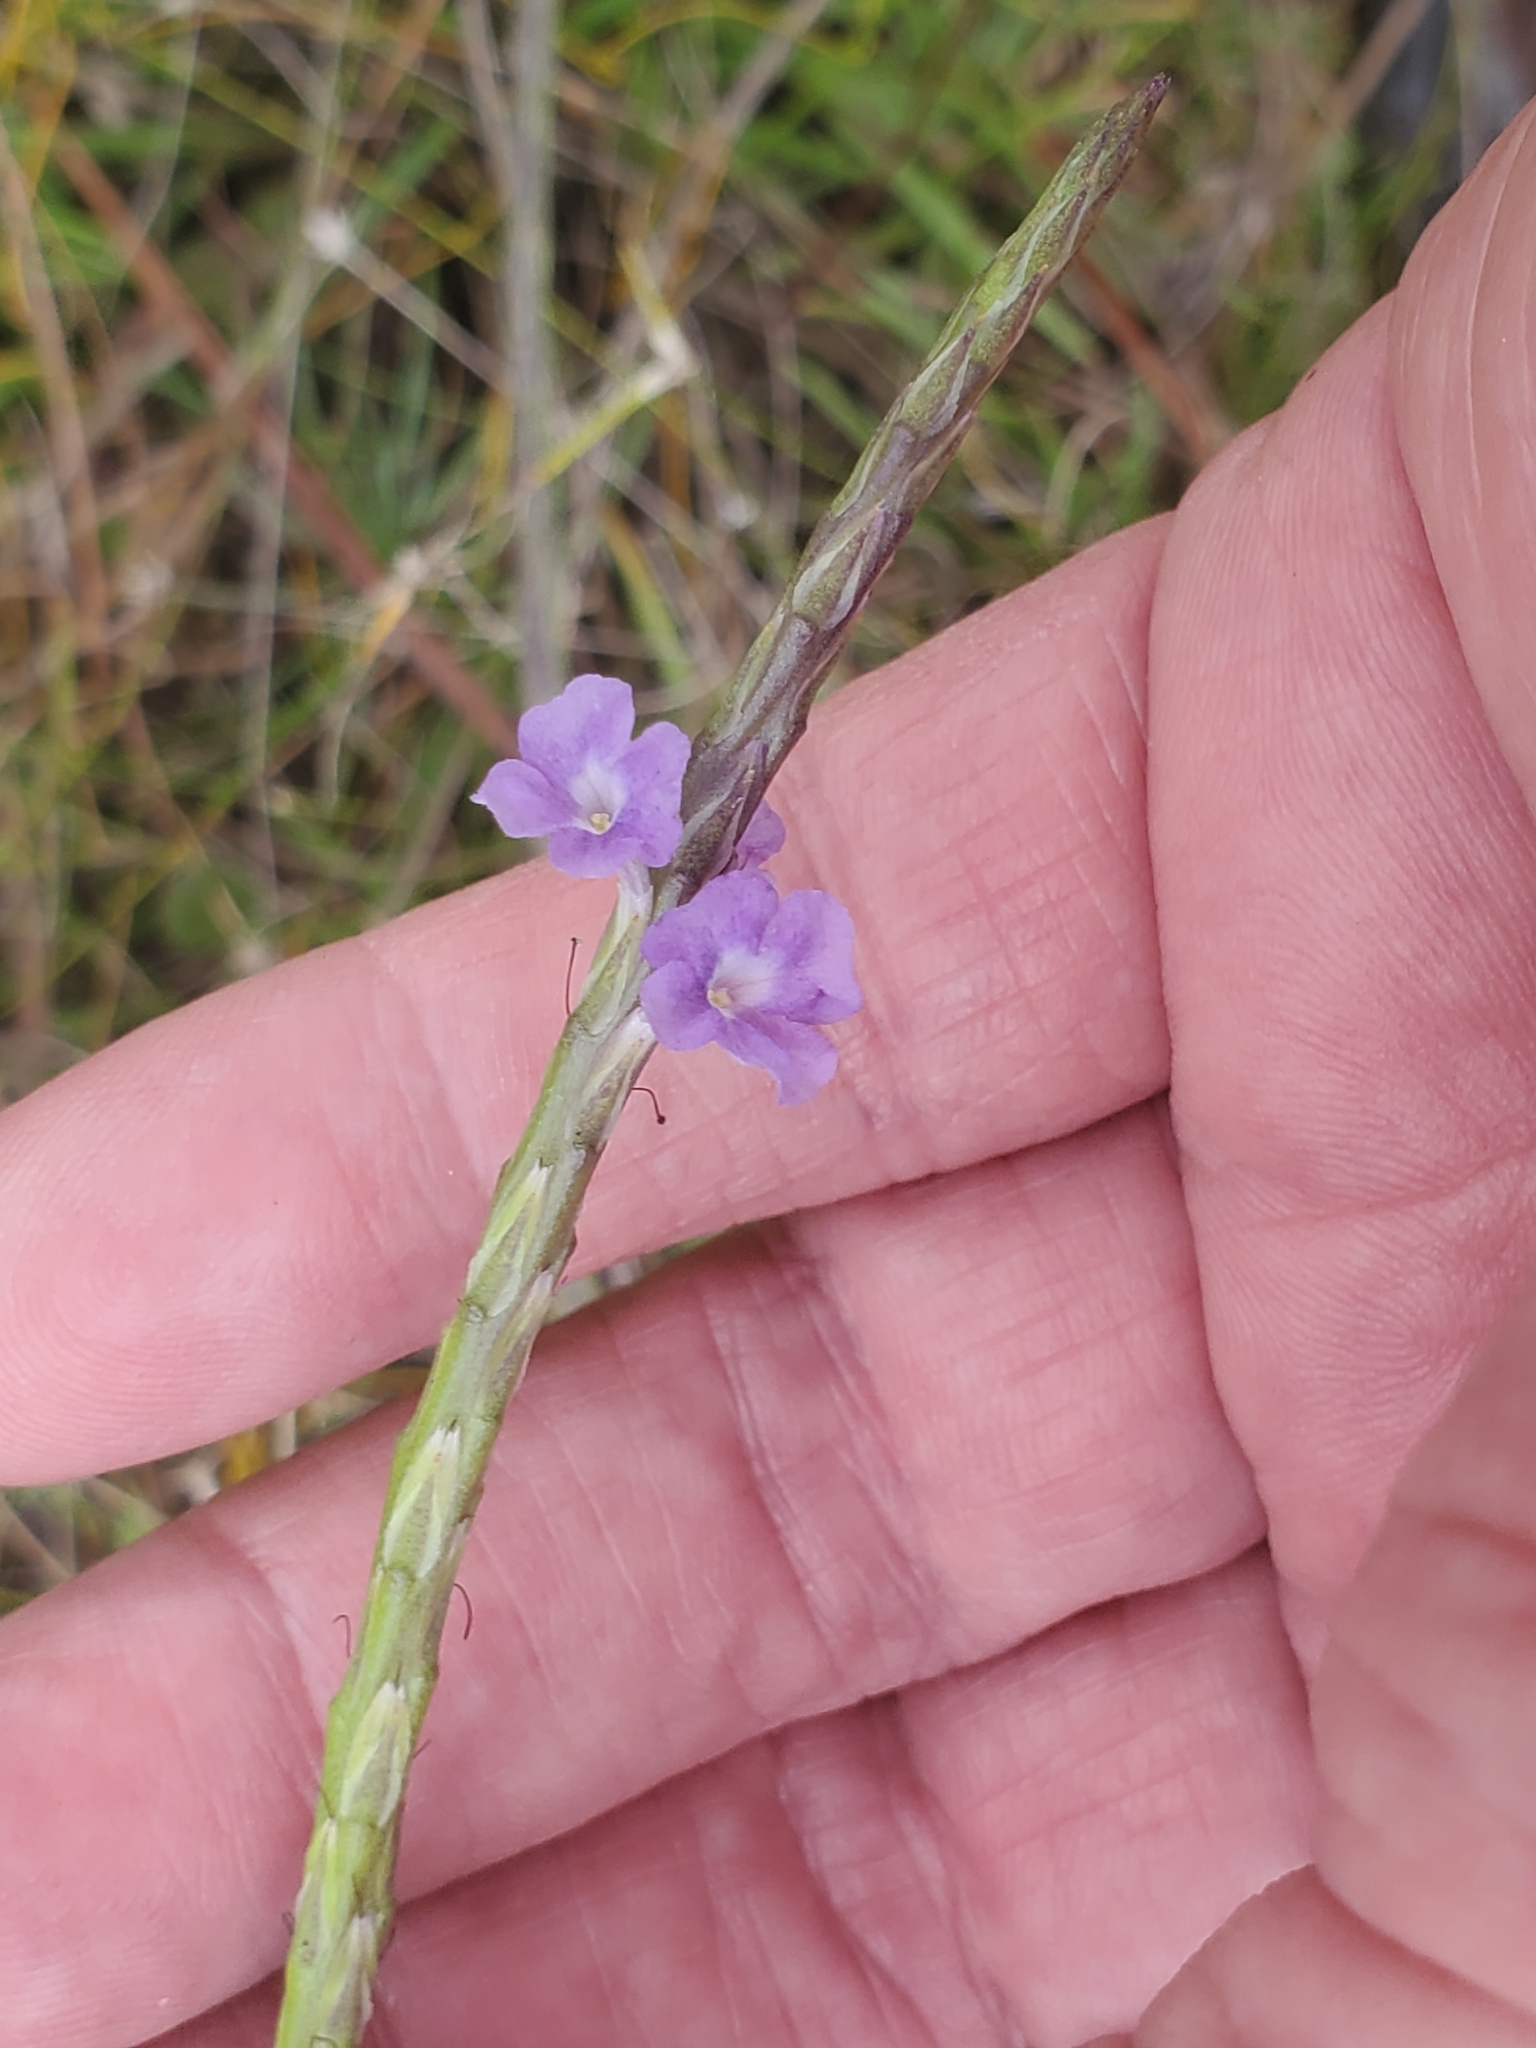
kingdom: Plantae
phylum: Tracheophyta
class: Magnoliopsida
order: Lamiales
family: Verbenaceae
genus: Stachytarpheta
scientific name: Stachytarpheta jamaicensis
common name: Light-blue snakeweed
